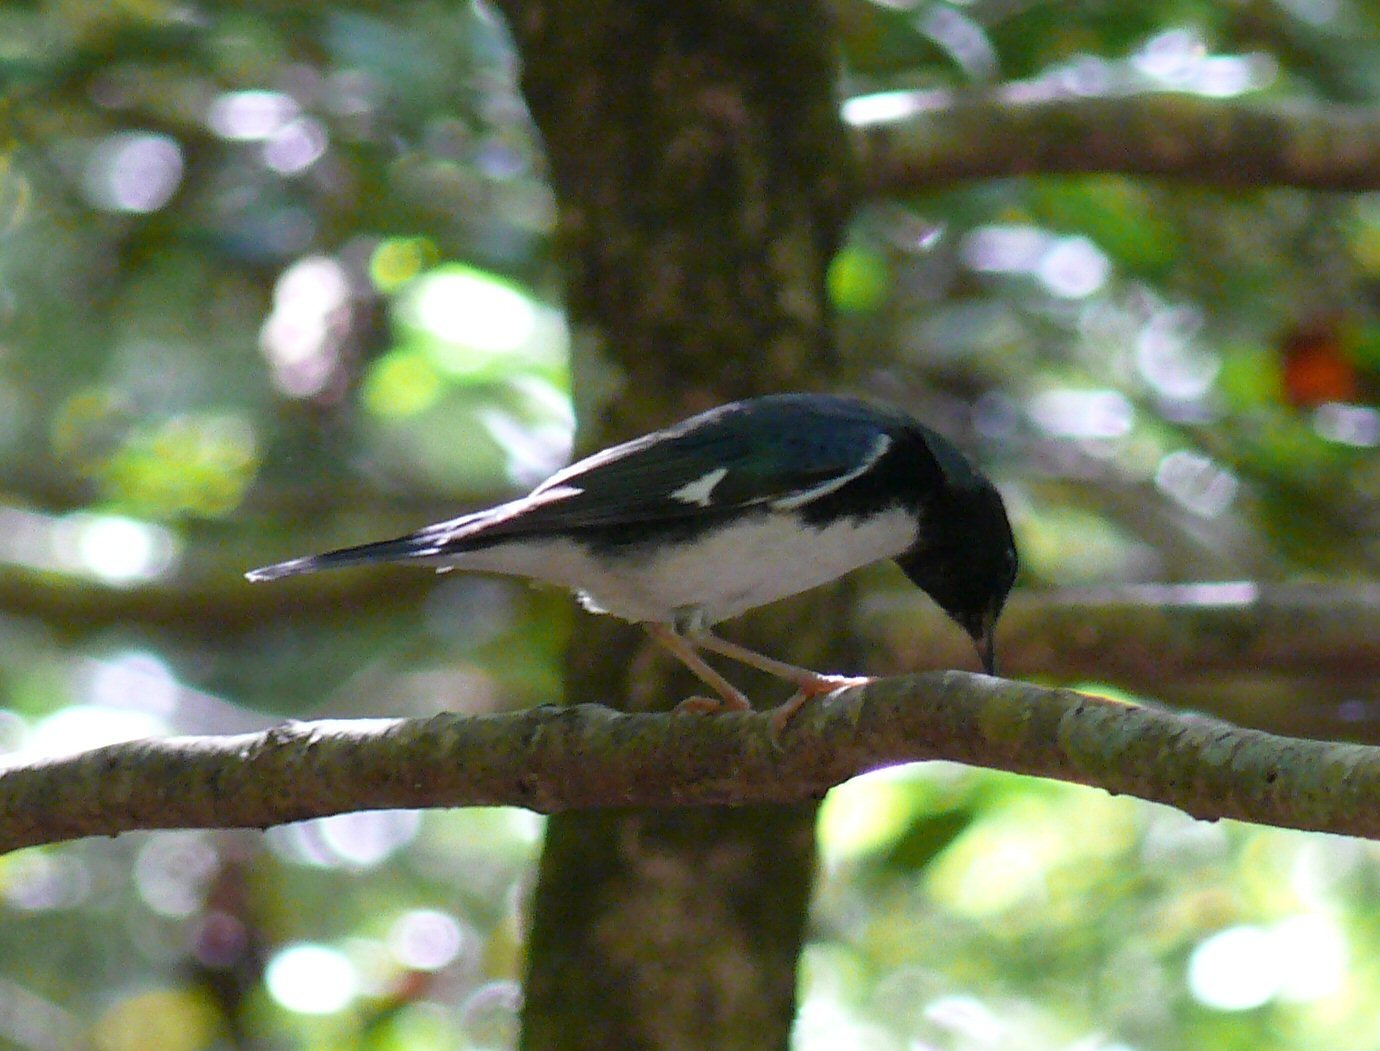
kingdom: Animalia
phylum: Chordata
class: Aves
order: Passeriformes
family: Parulidae
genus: Setophaga
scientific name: Setophaga caerulescens
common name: Black-throated blue warbler
